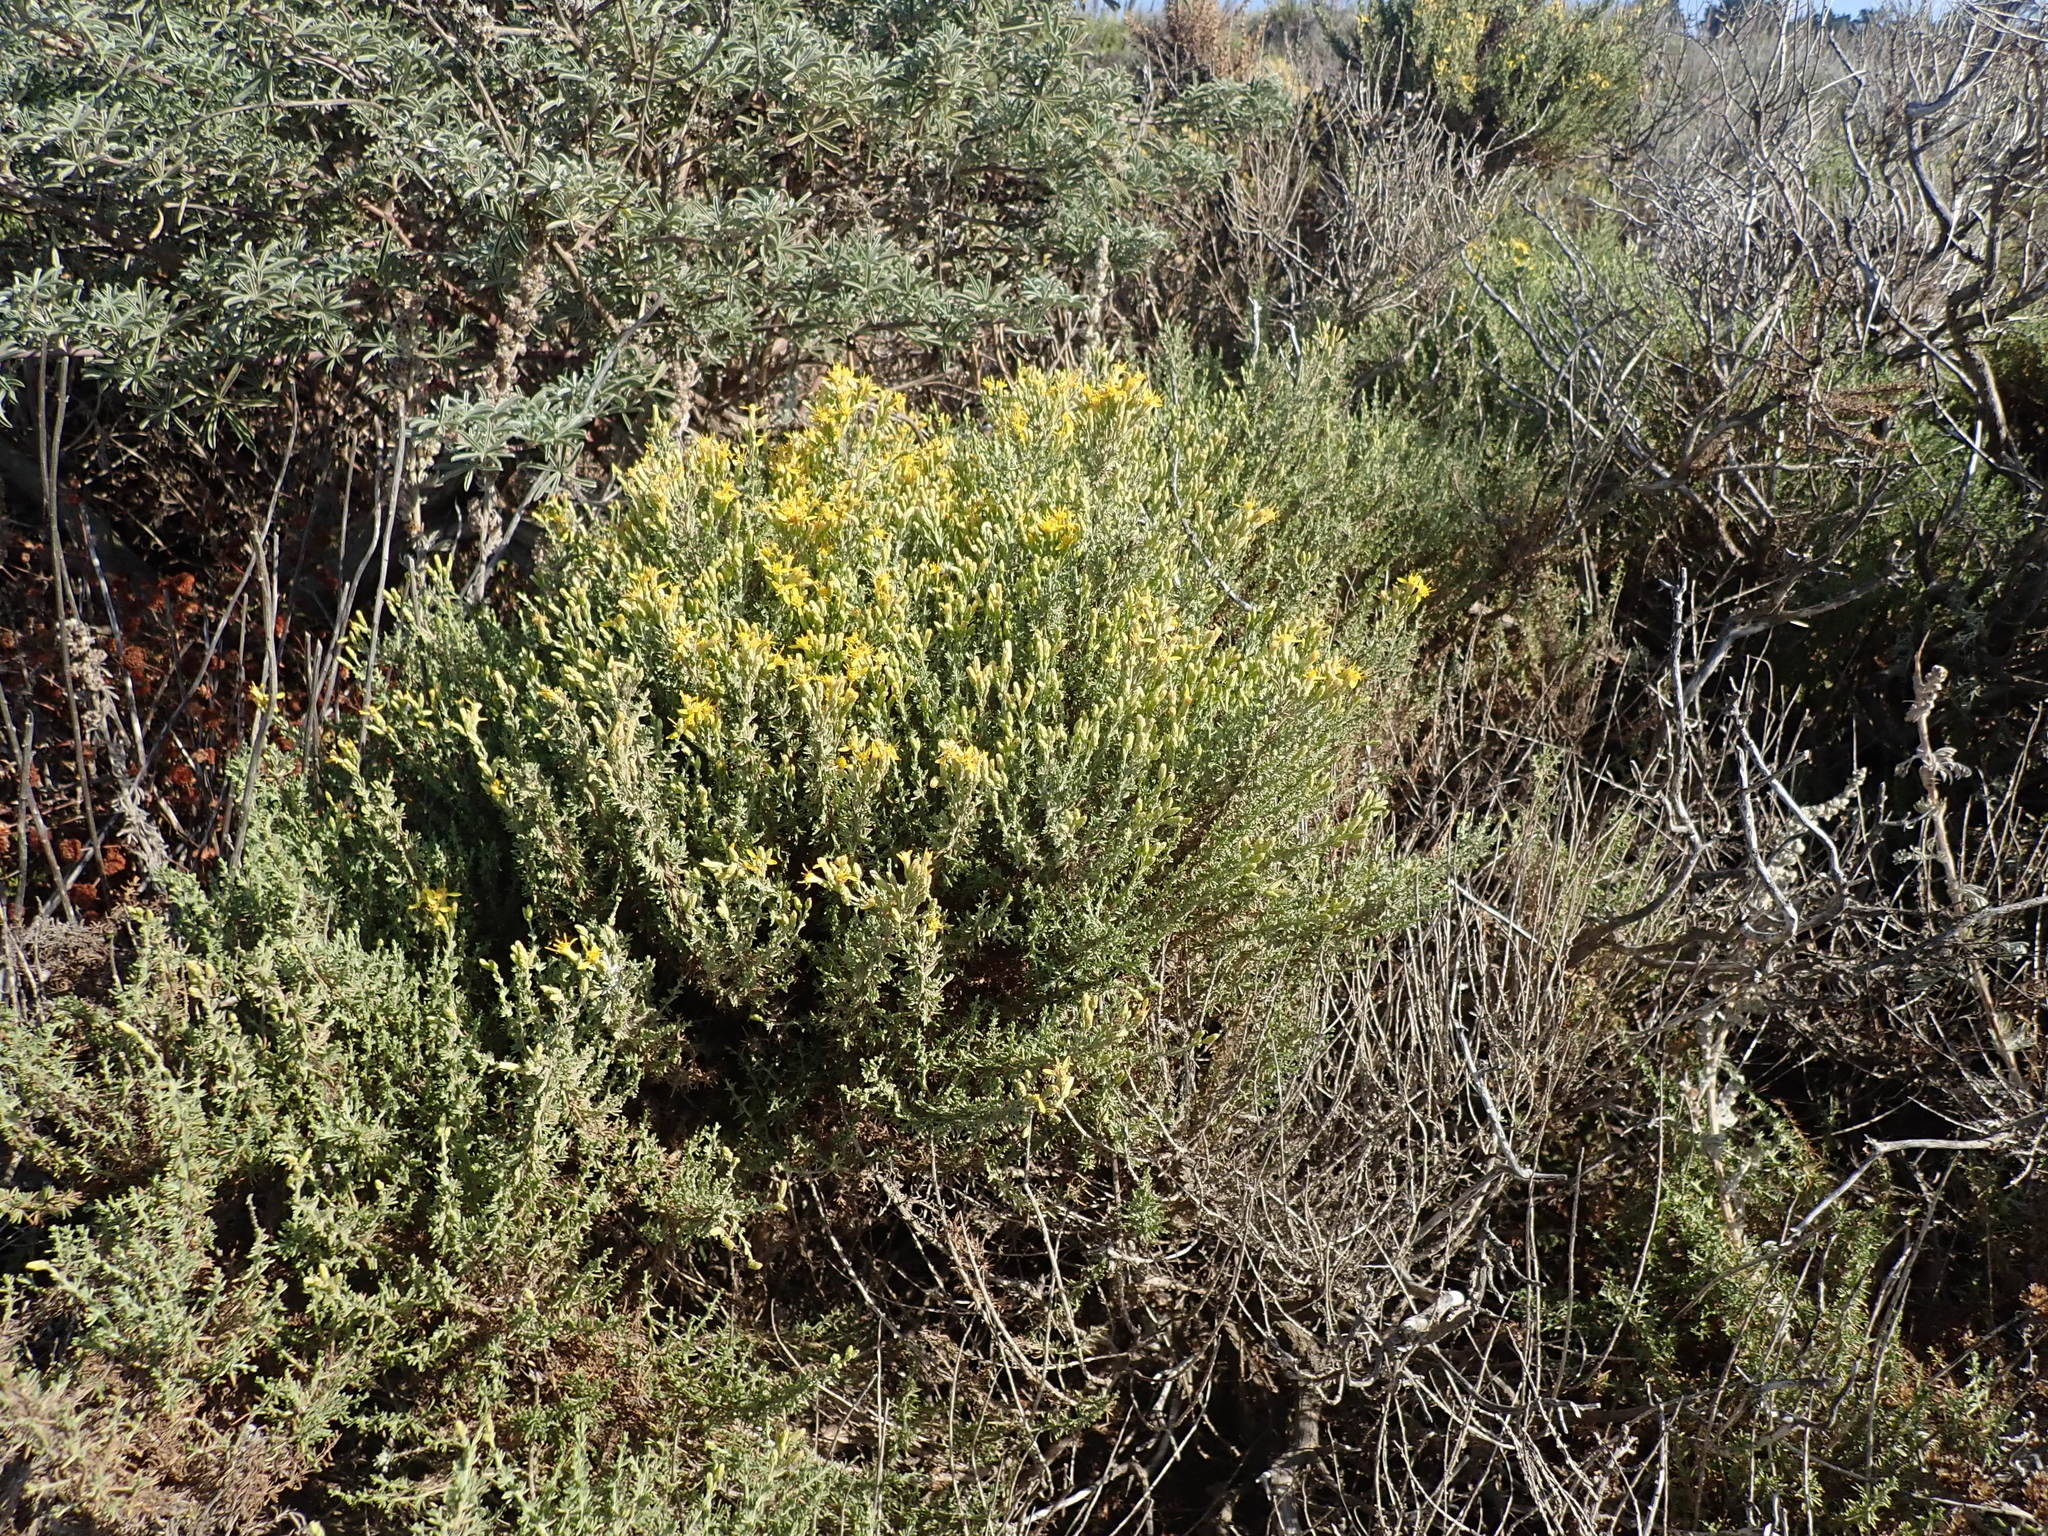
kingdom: Plantae
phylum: Tracheophyta
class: Magnoliopsida
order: Asterales
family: Asteraceae
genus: Ericameria
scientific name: Ericameria ericoides
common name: California goldenbush
